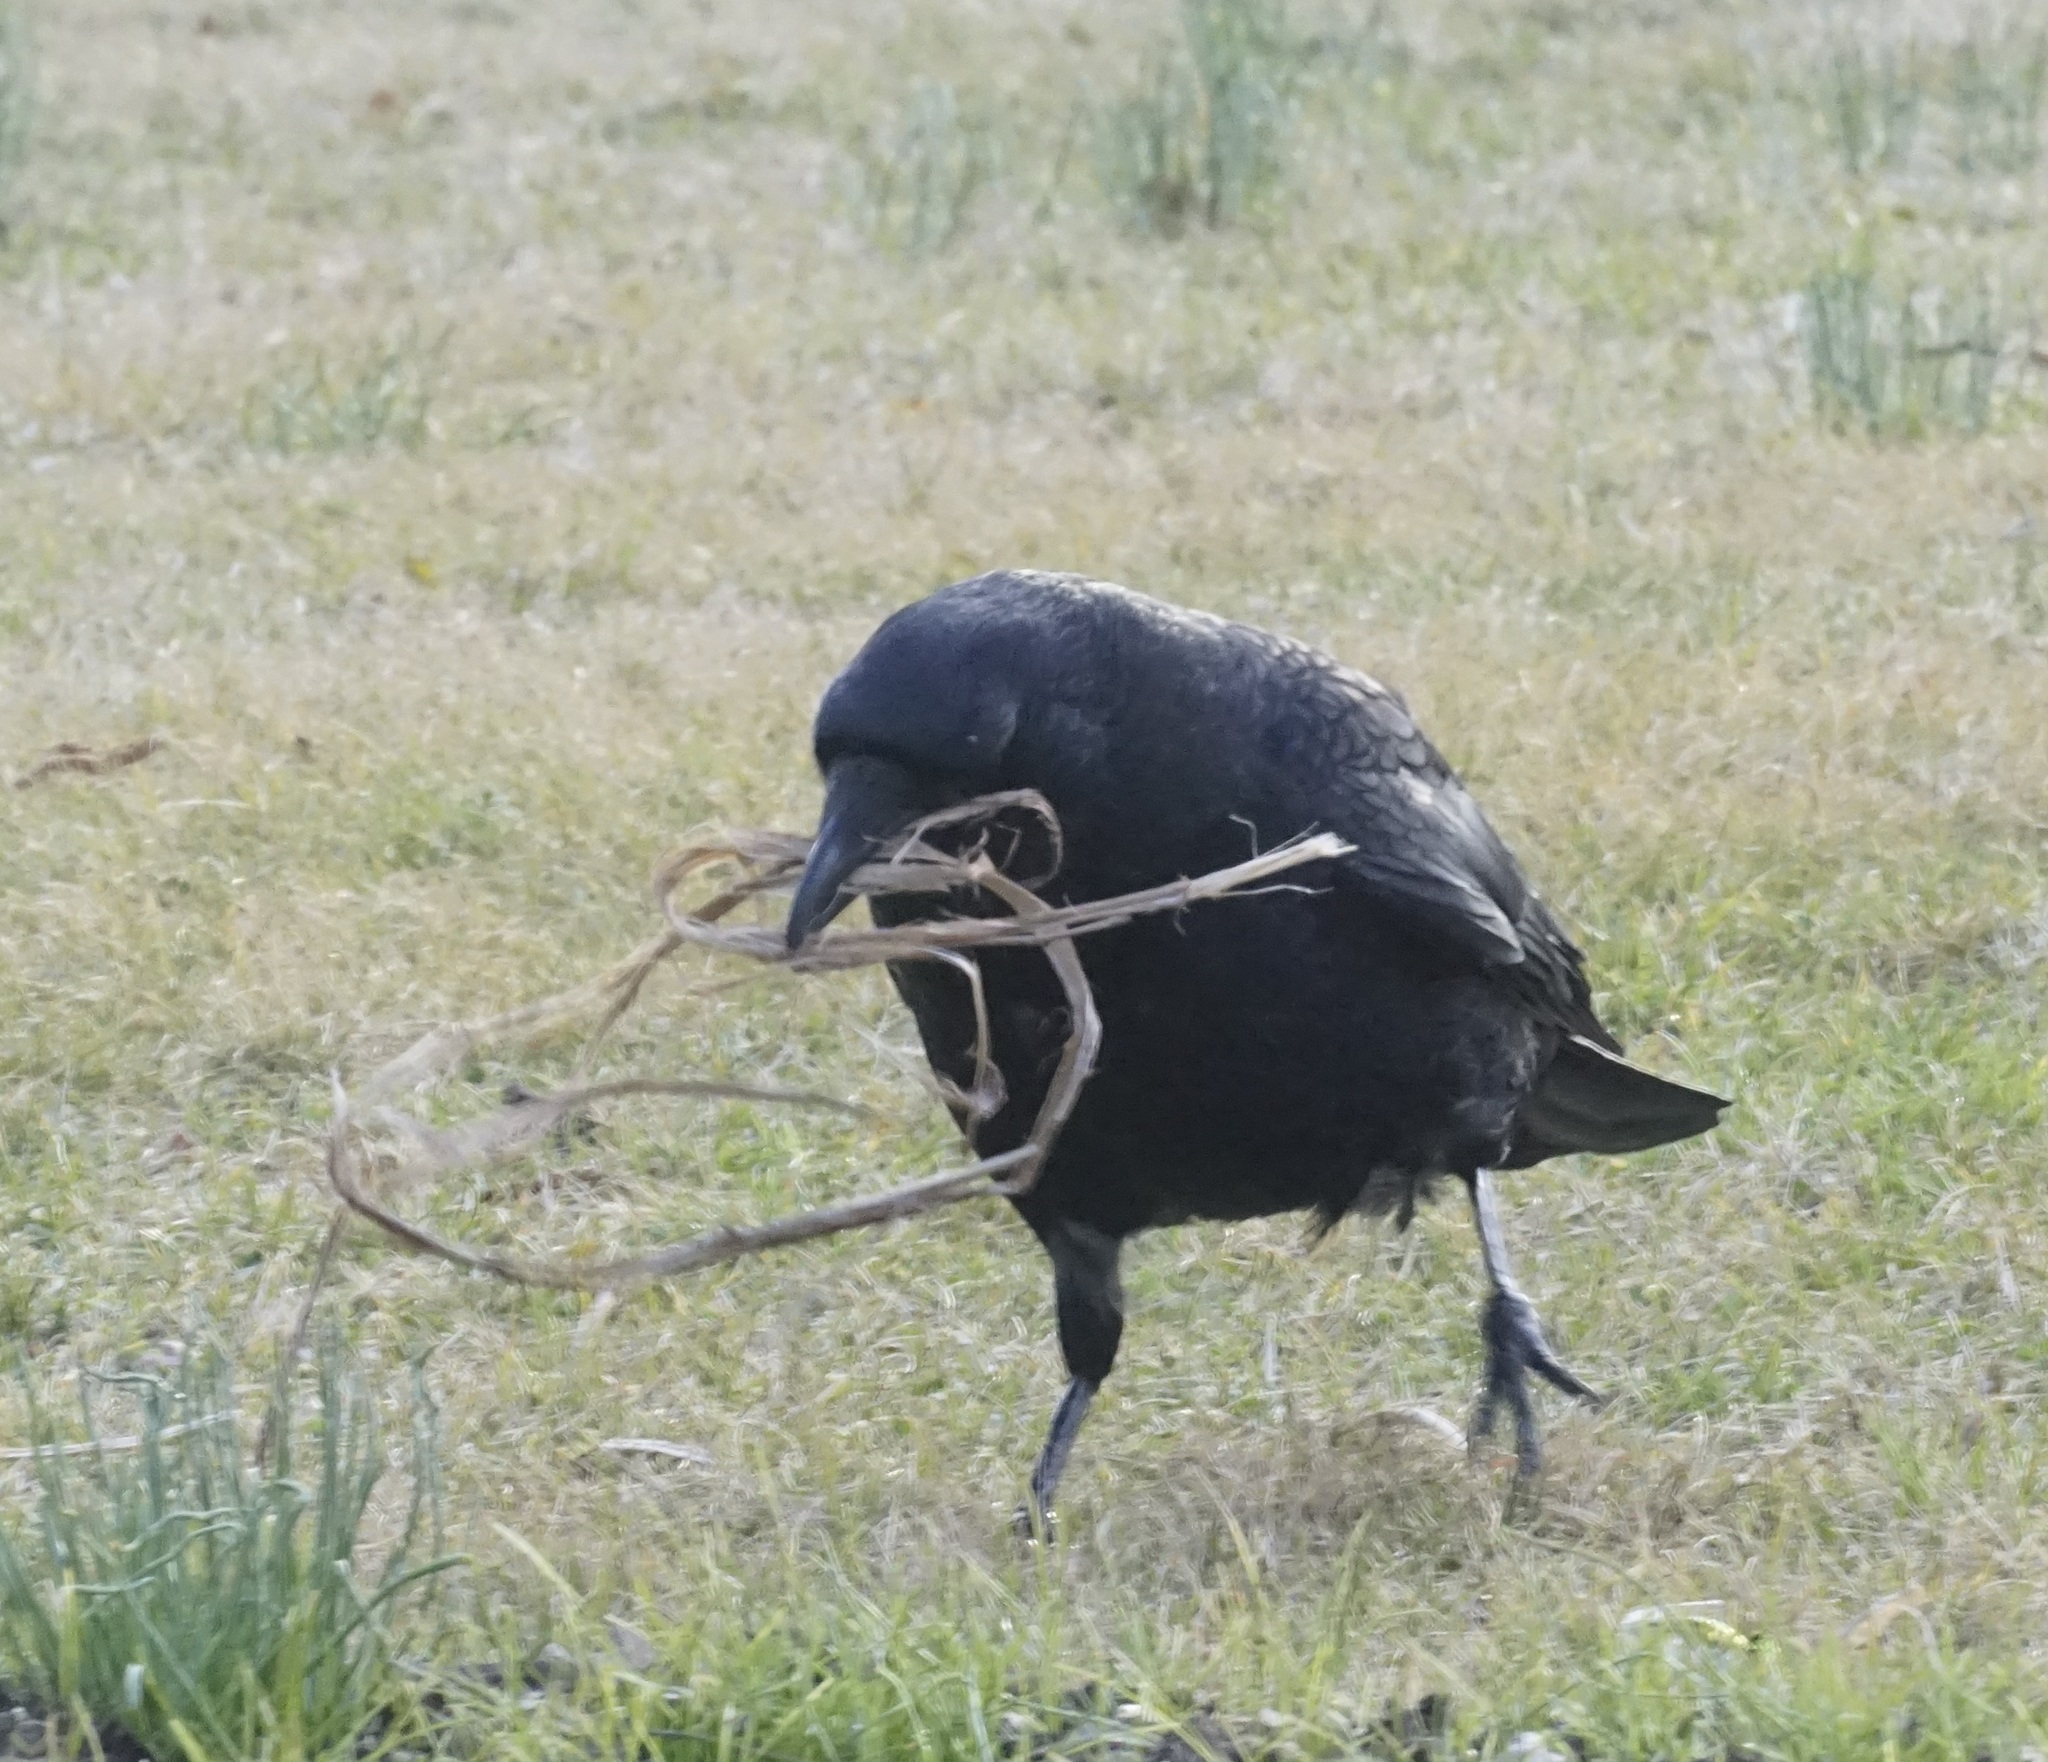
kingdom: Animalia
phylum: Chordata
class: Aves
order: Passeriformes
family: Corvidae
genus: Corvus
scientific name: Corvus corone
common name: Carrion crow
